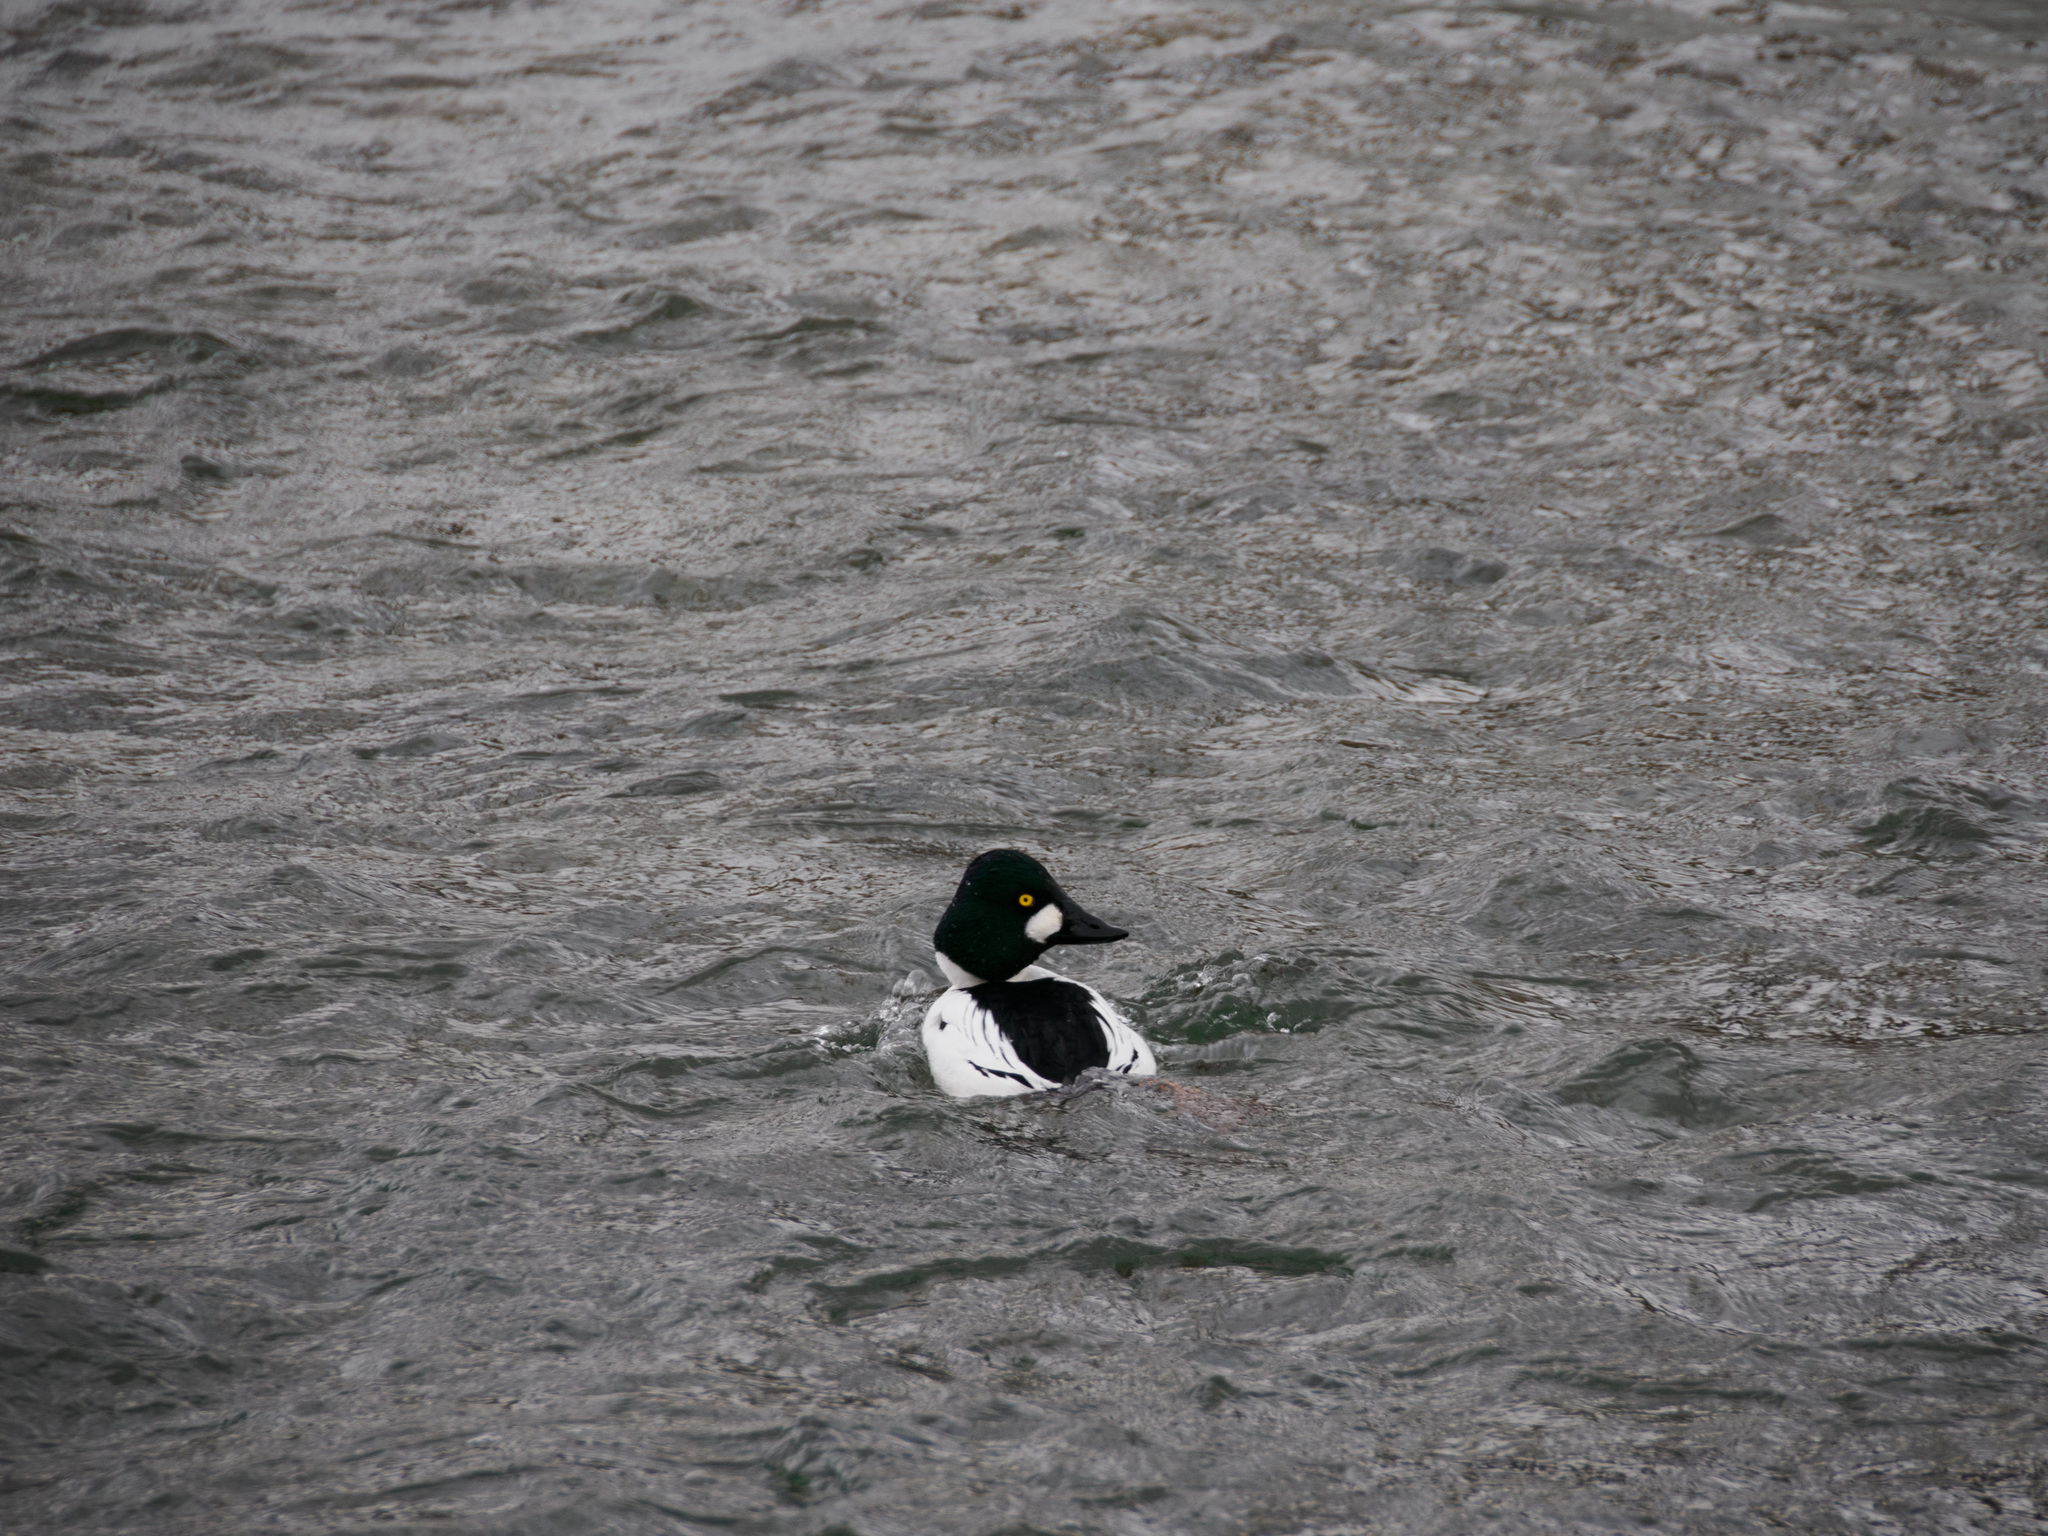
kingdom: Animalia
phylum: Chordata
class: Aves
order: Anseriformes
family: Anatidae
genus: Bucephala
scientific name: Bucephala clangula
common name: Common goldeneye
